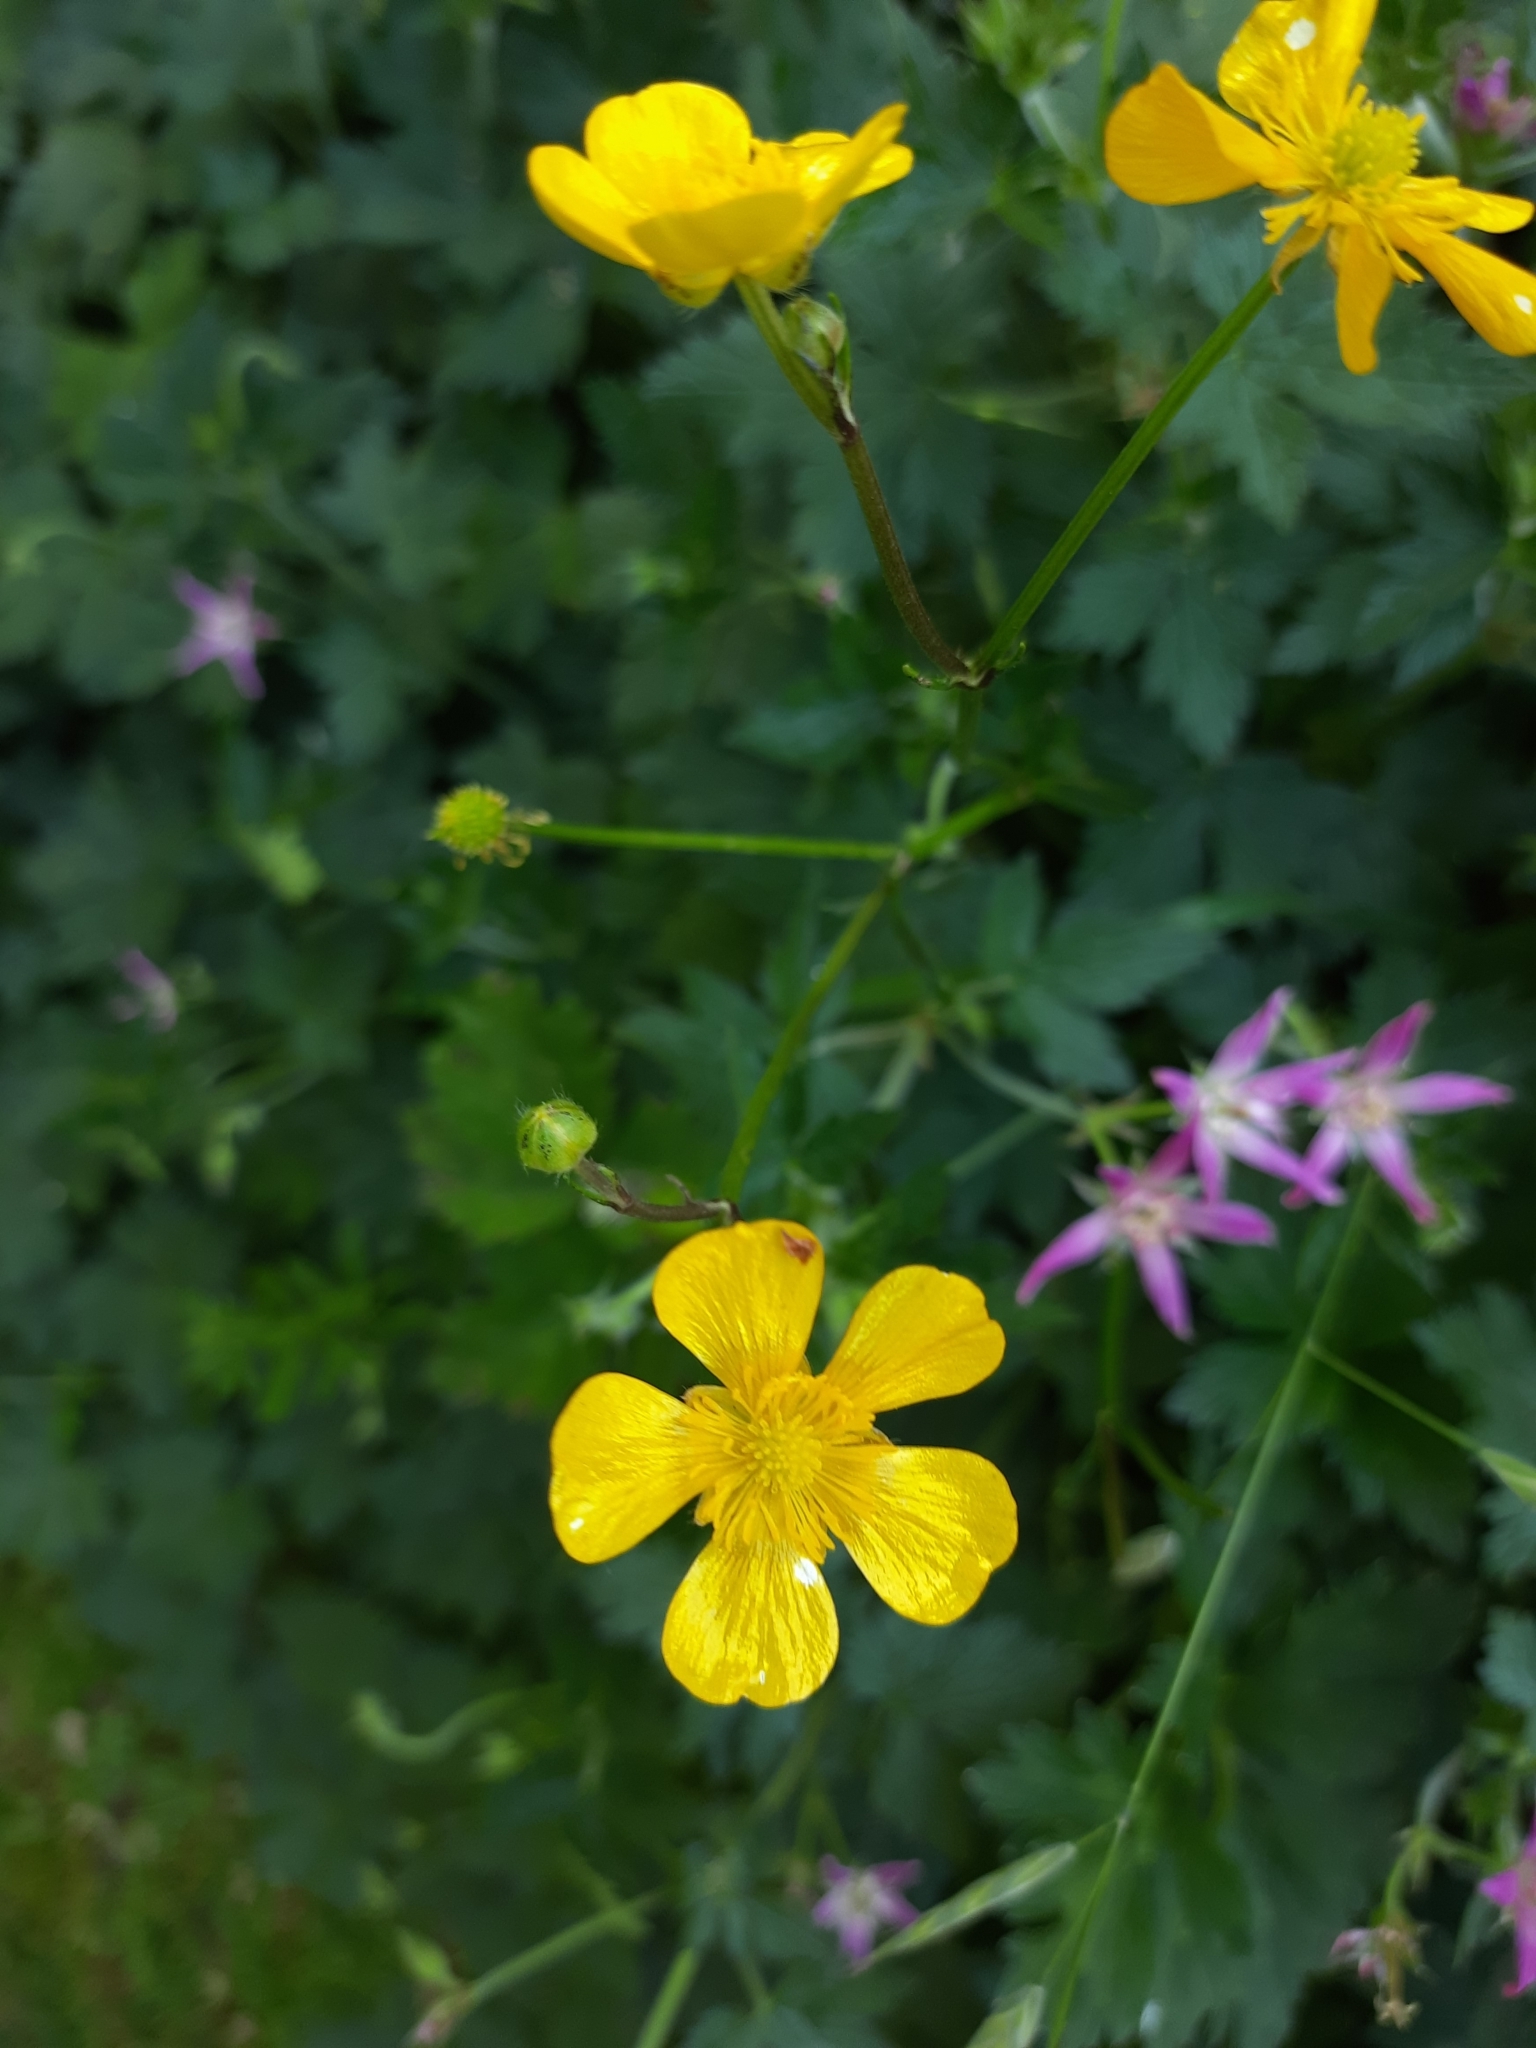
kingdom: Plantae
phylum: Tracheophyta
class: Magnoliopsida
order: Ranunculales
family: Ranunculaceae
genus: Ranunculus
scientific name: Ranunculus repens
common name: Creeping buttercup
